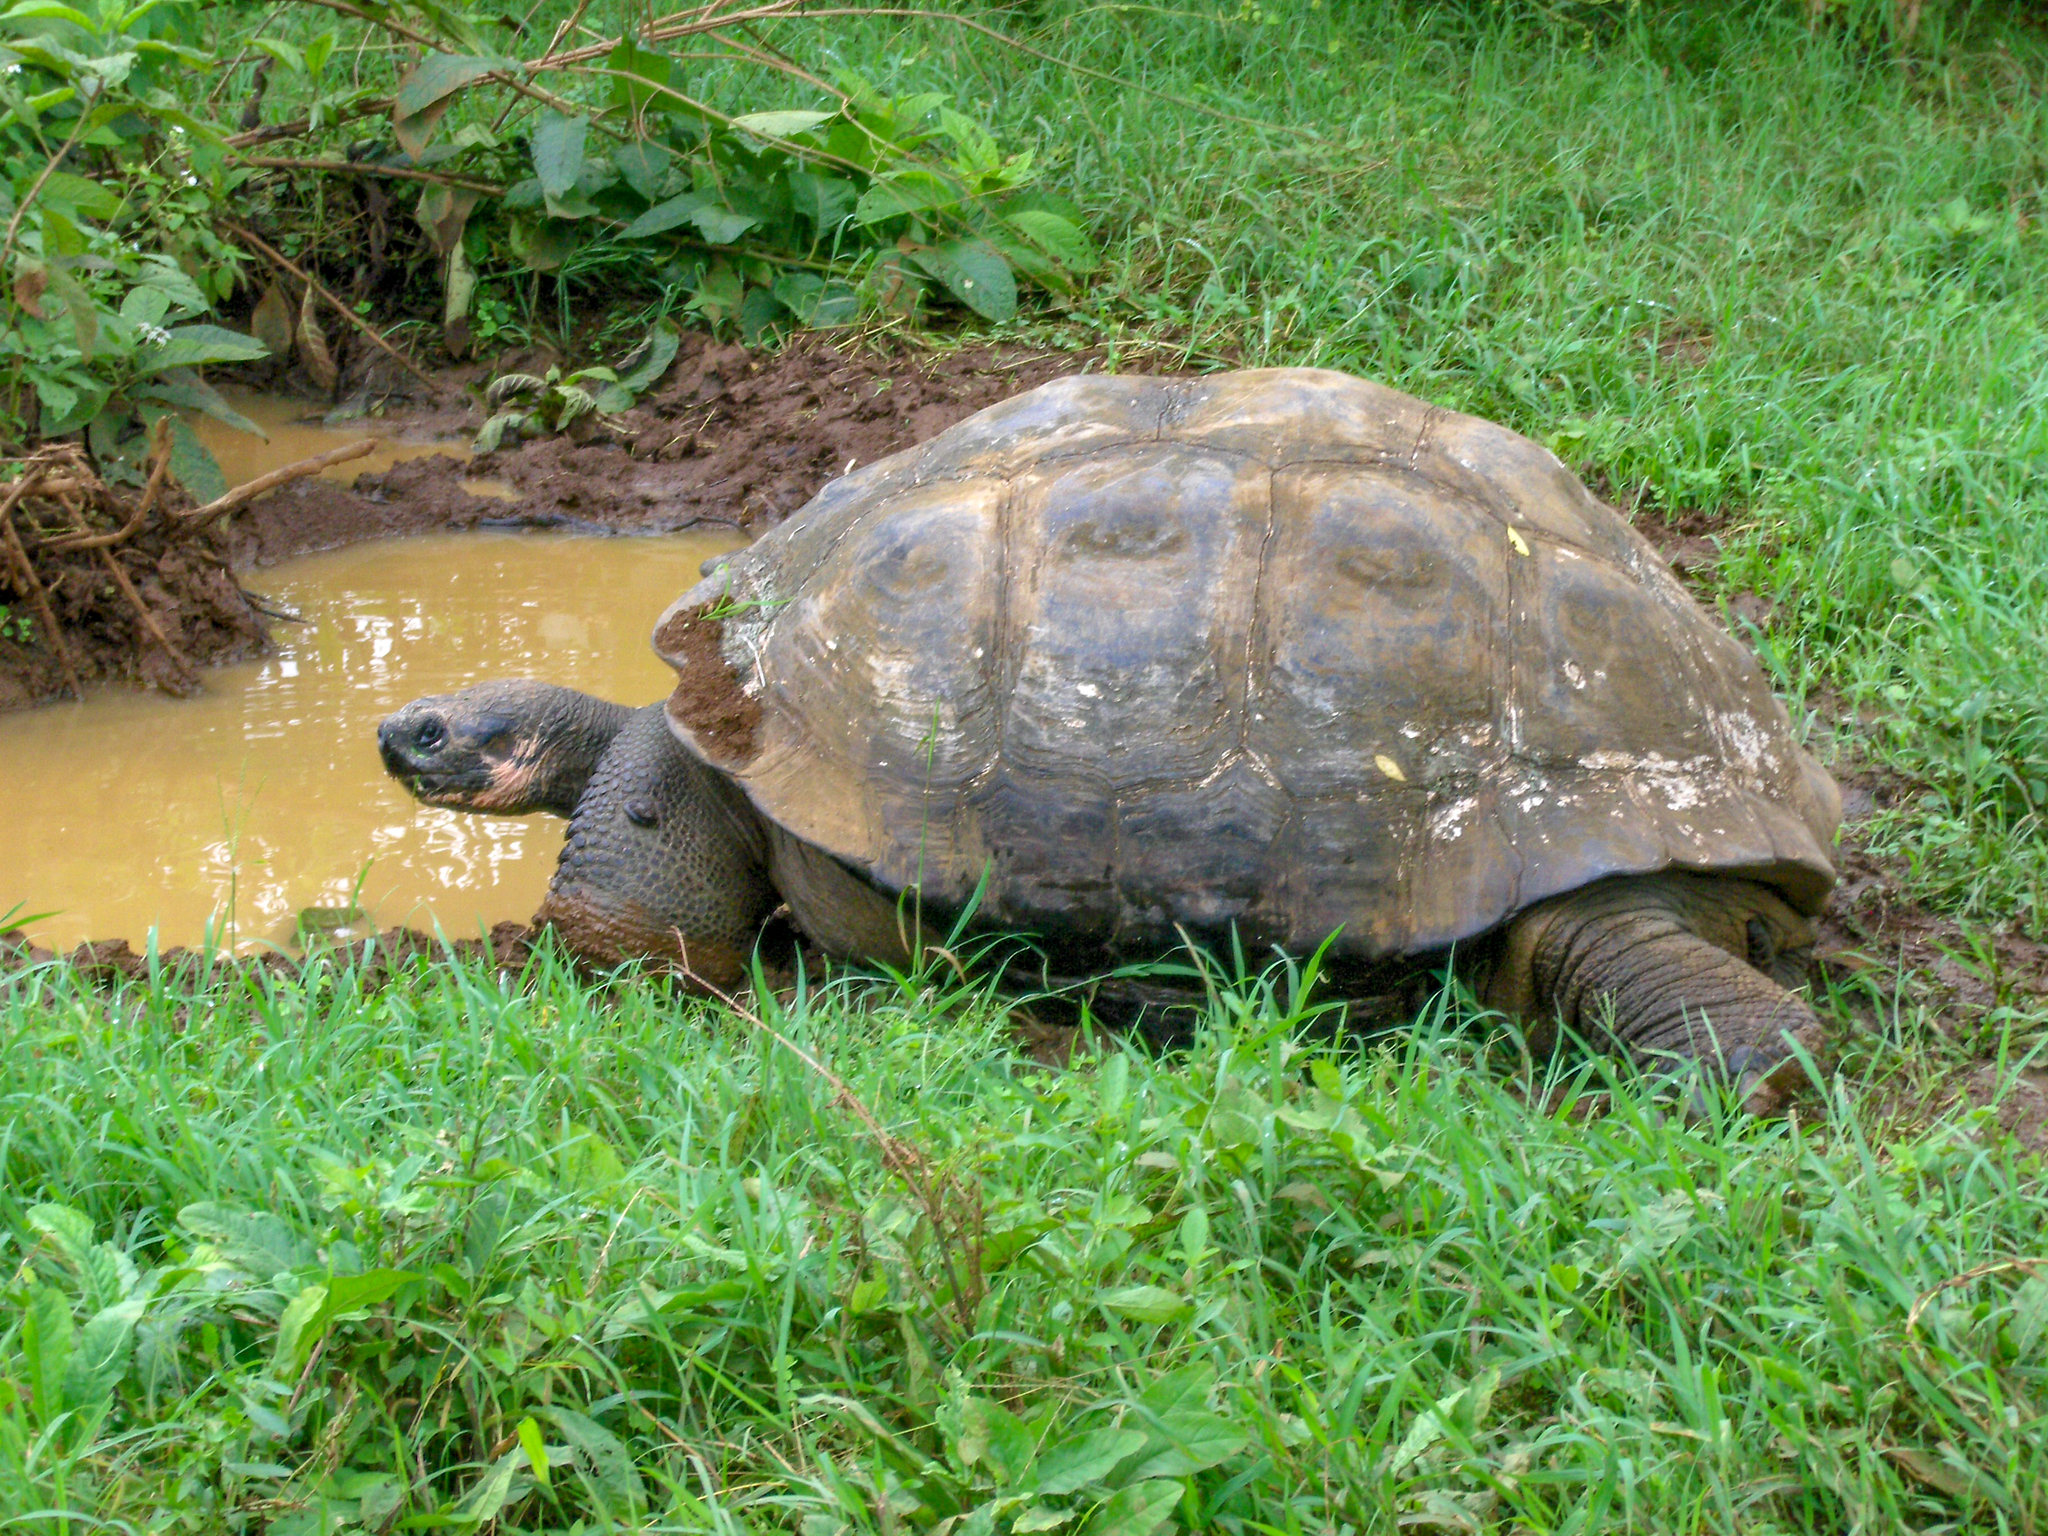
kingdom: Animalia
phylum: Chordata
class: Testudines
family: Testudinidae
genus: Chelonoidis
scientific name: Chelonoidis porteri
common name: Indefatigable island giant tortoise
